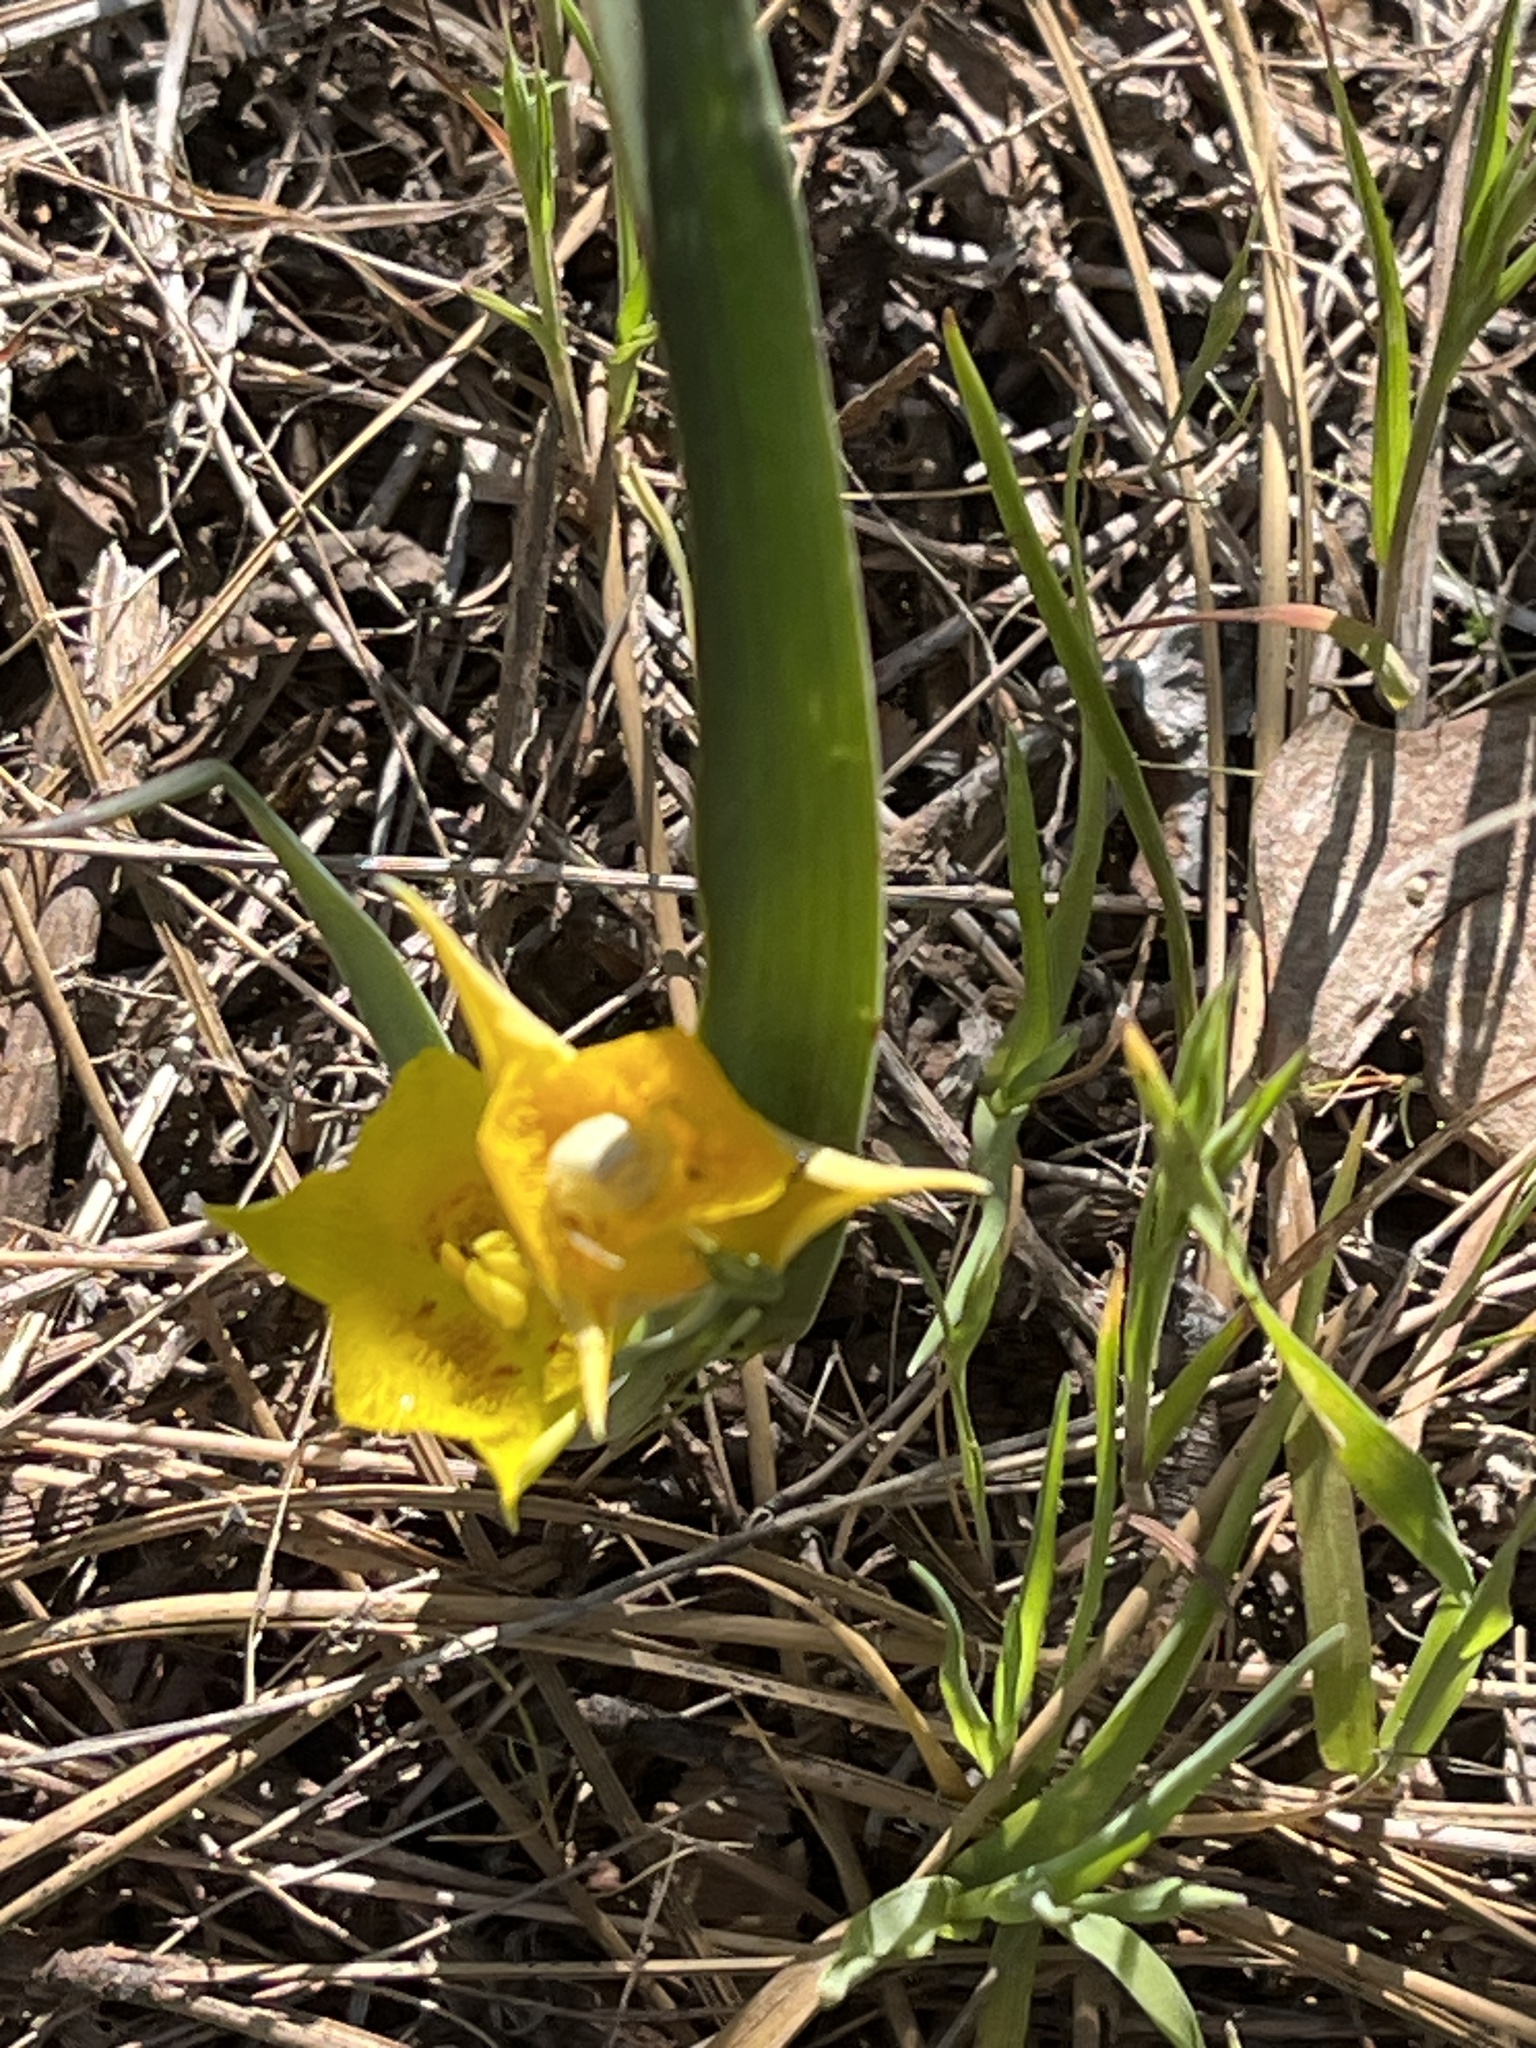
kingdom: Plantae
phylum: Tracheophyta
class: Liliopsida
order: Liliales
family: Liliaceae
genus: Calochortus
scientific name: Calochortus monophyllus
